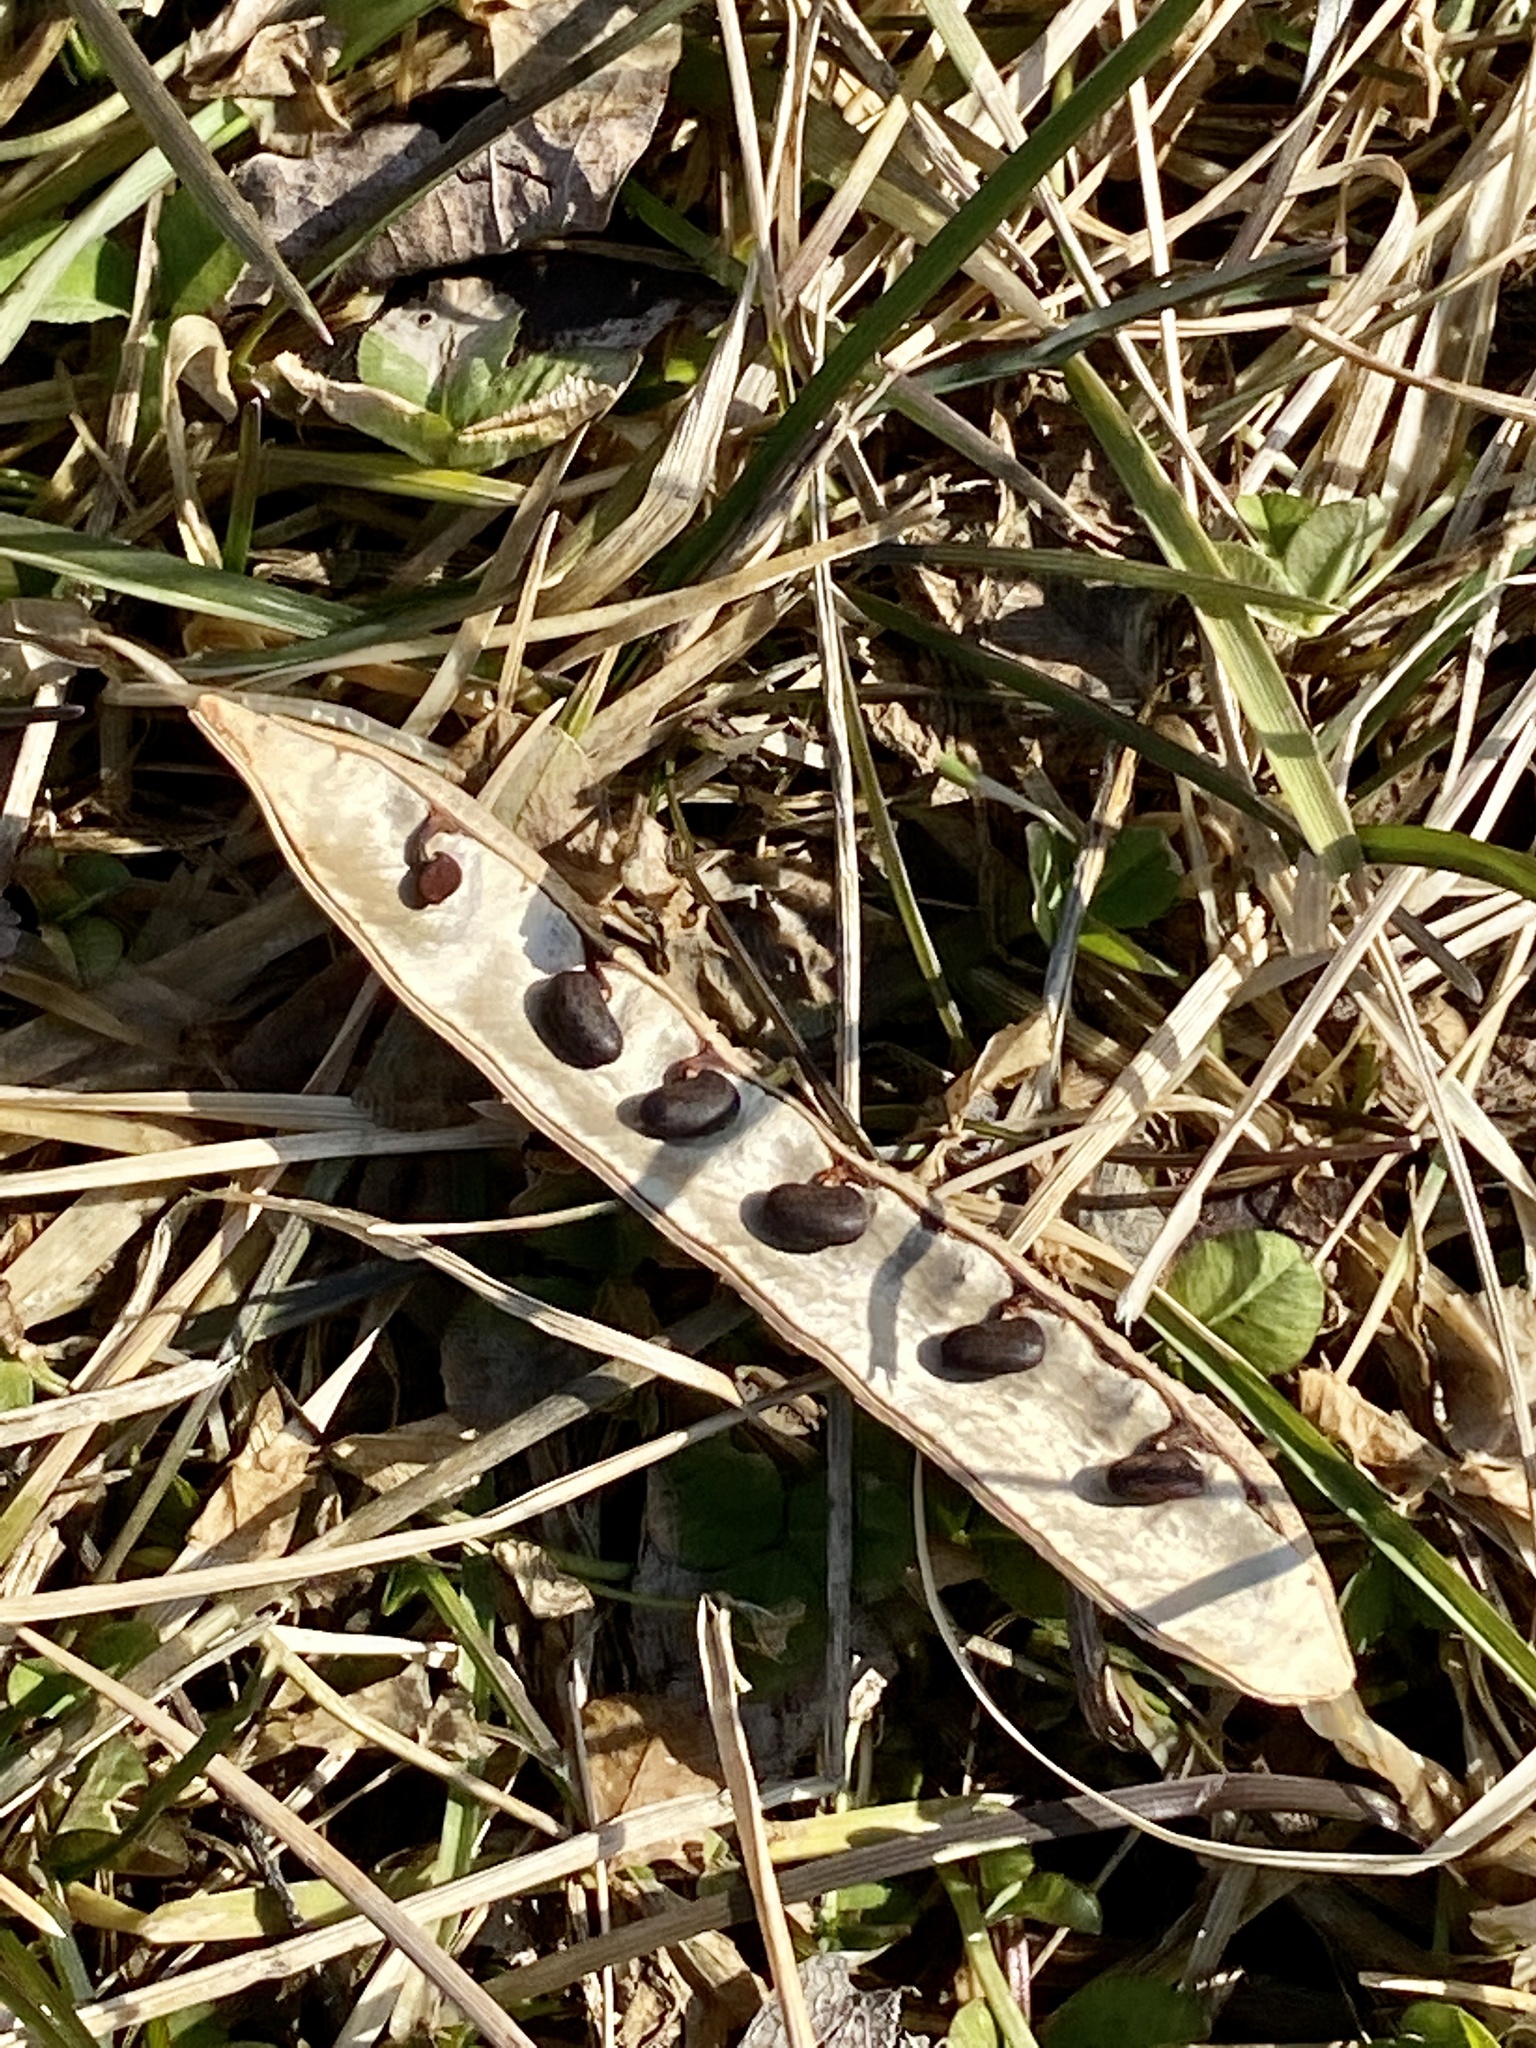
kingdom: Plantae
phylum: Tracheophyta
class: Magnoliopsida
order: Fabales
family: Fabaceae
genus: Robinia
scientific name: Robinia pseudoacacia
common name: Black locust
